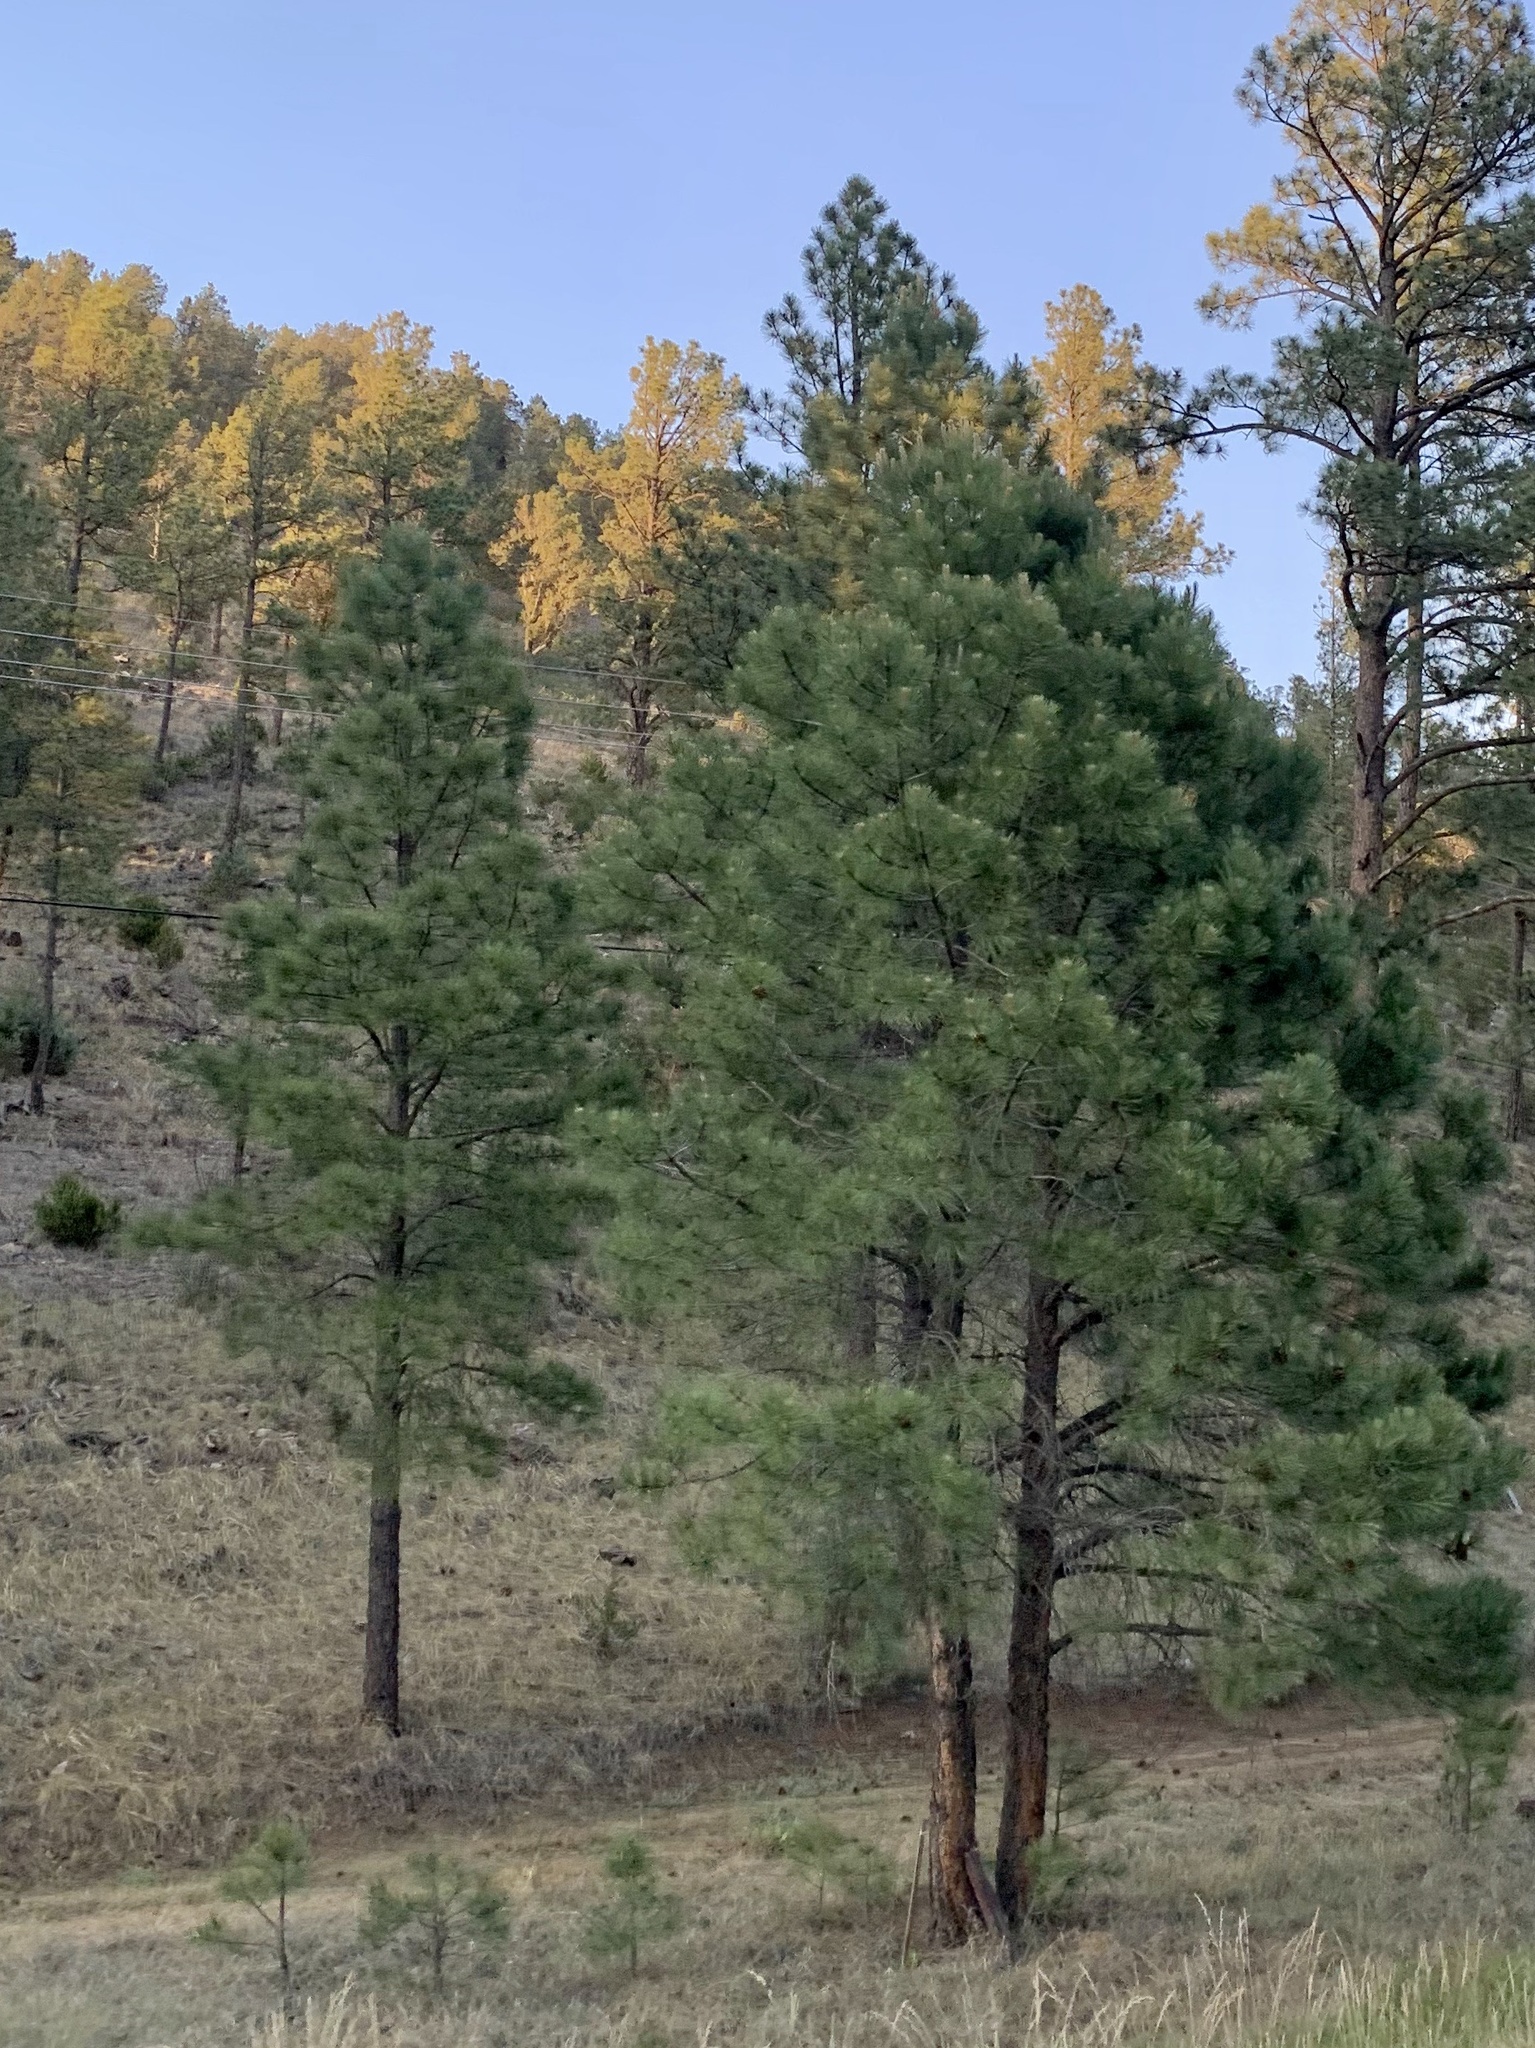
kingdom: Plantae
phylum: Tracheophyta
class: Pinopsida
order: Pinales
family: Pinaceae
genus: Pinus
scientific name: Pinus ponderosa
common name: Western yellow-pine
